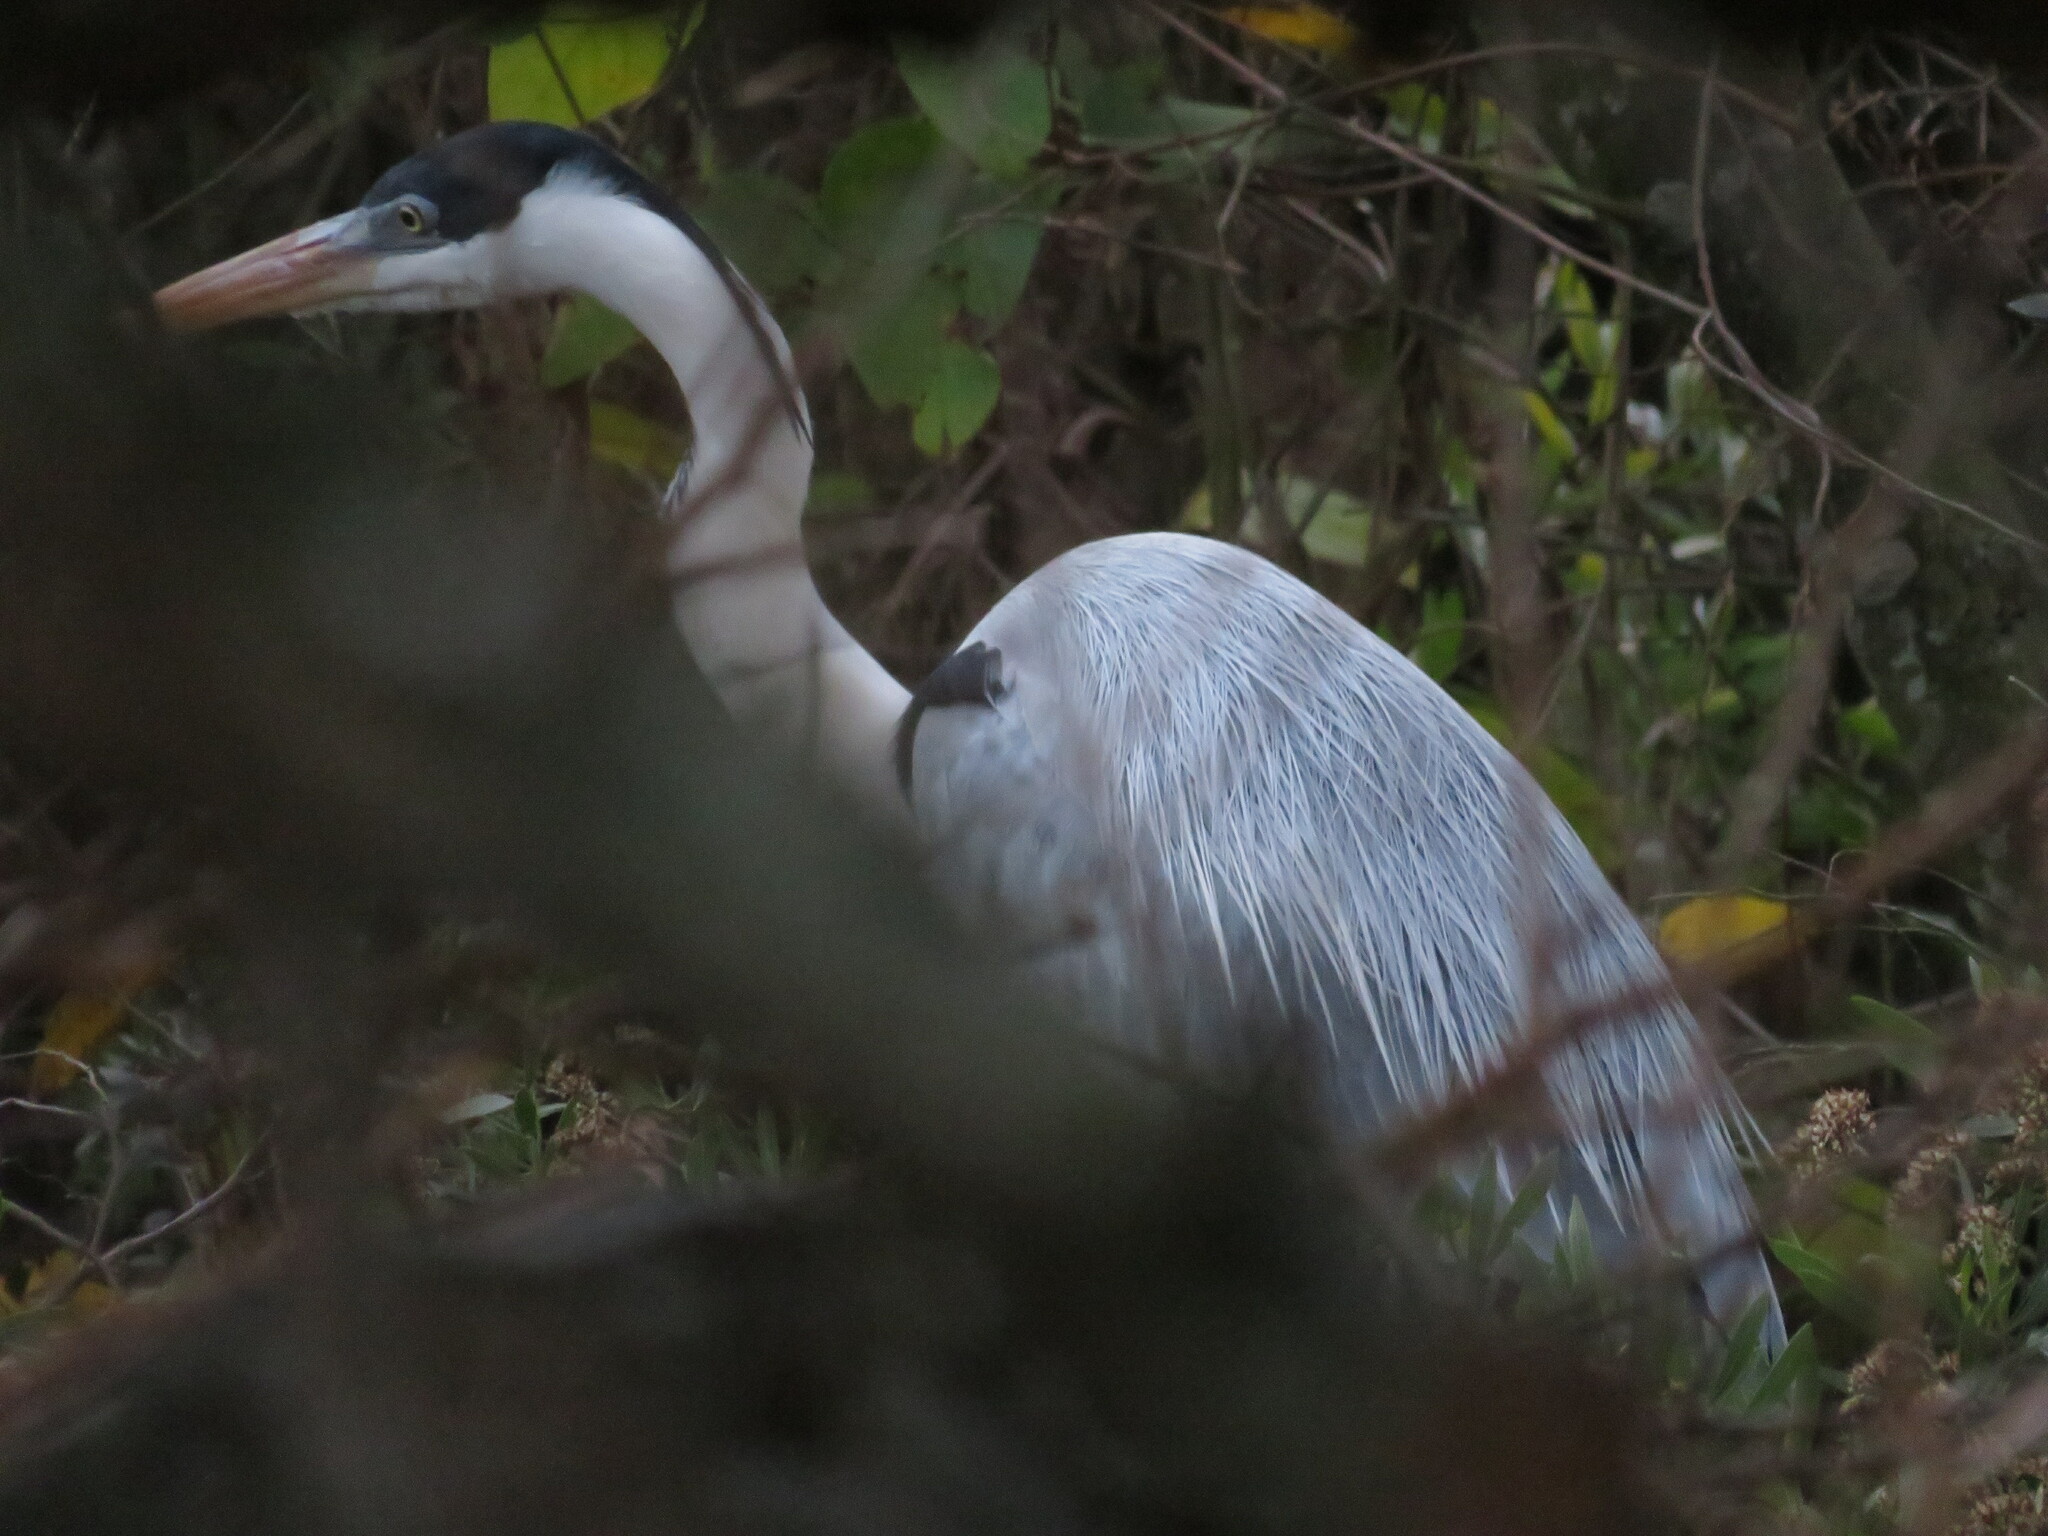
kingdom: Animalia
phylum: Chordata
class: Aves
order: Pelecaniformes
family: Ardeidae
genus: Ardea
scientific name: Ardea cocoi
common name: Cocoi heron
